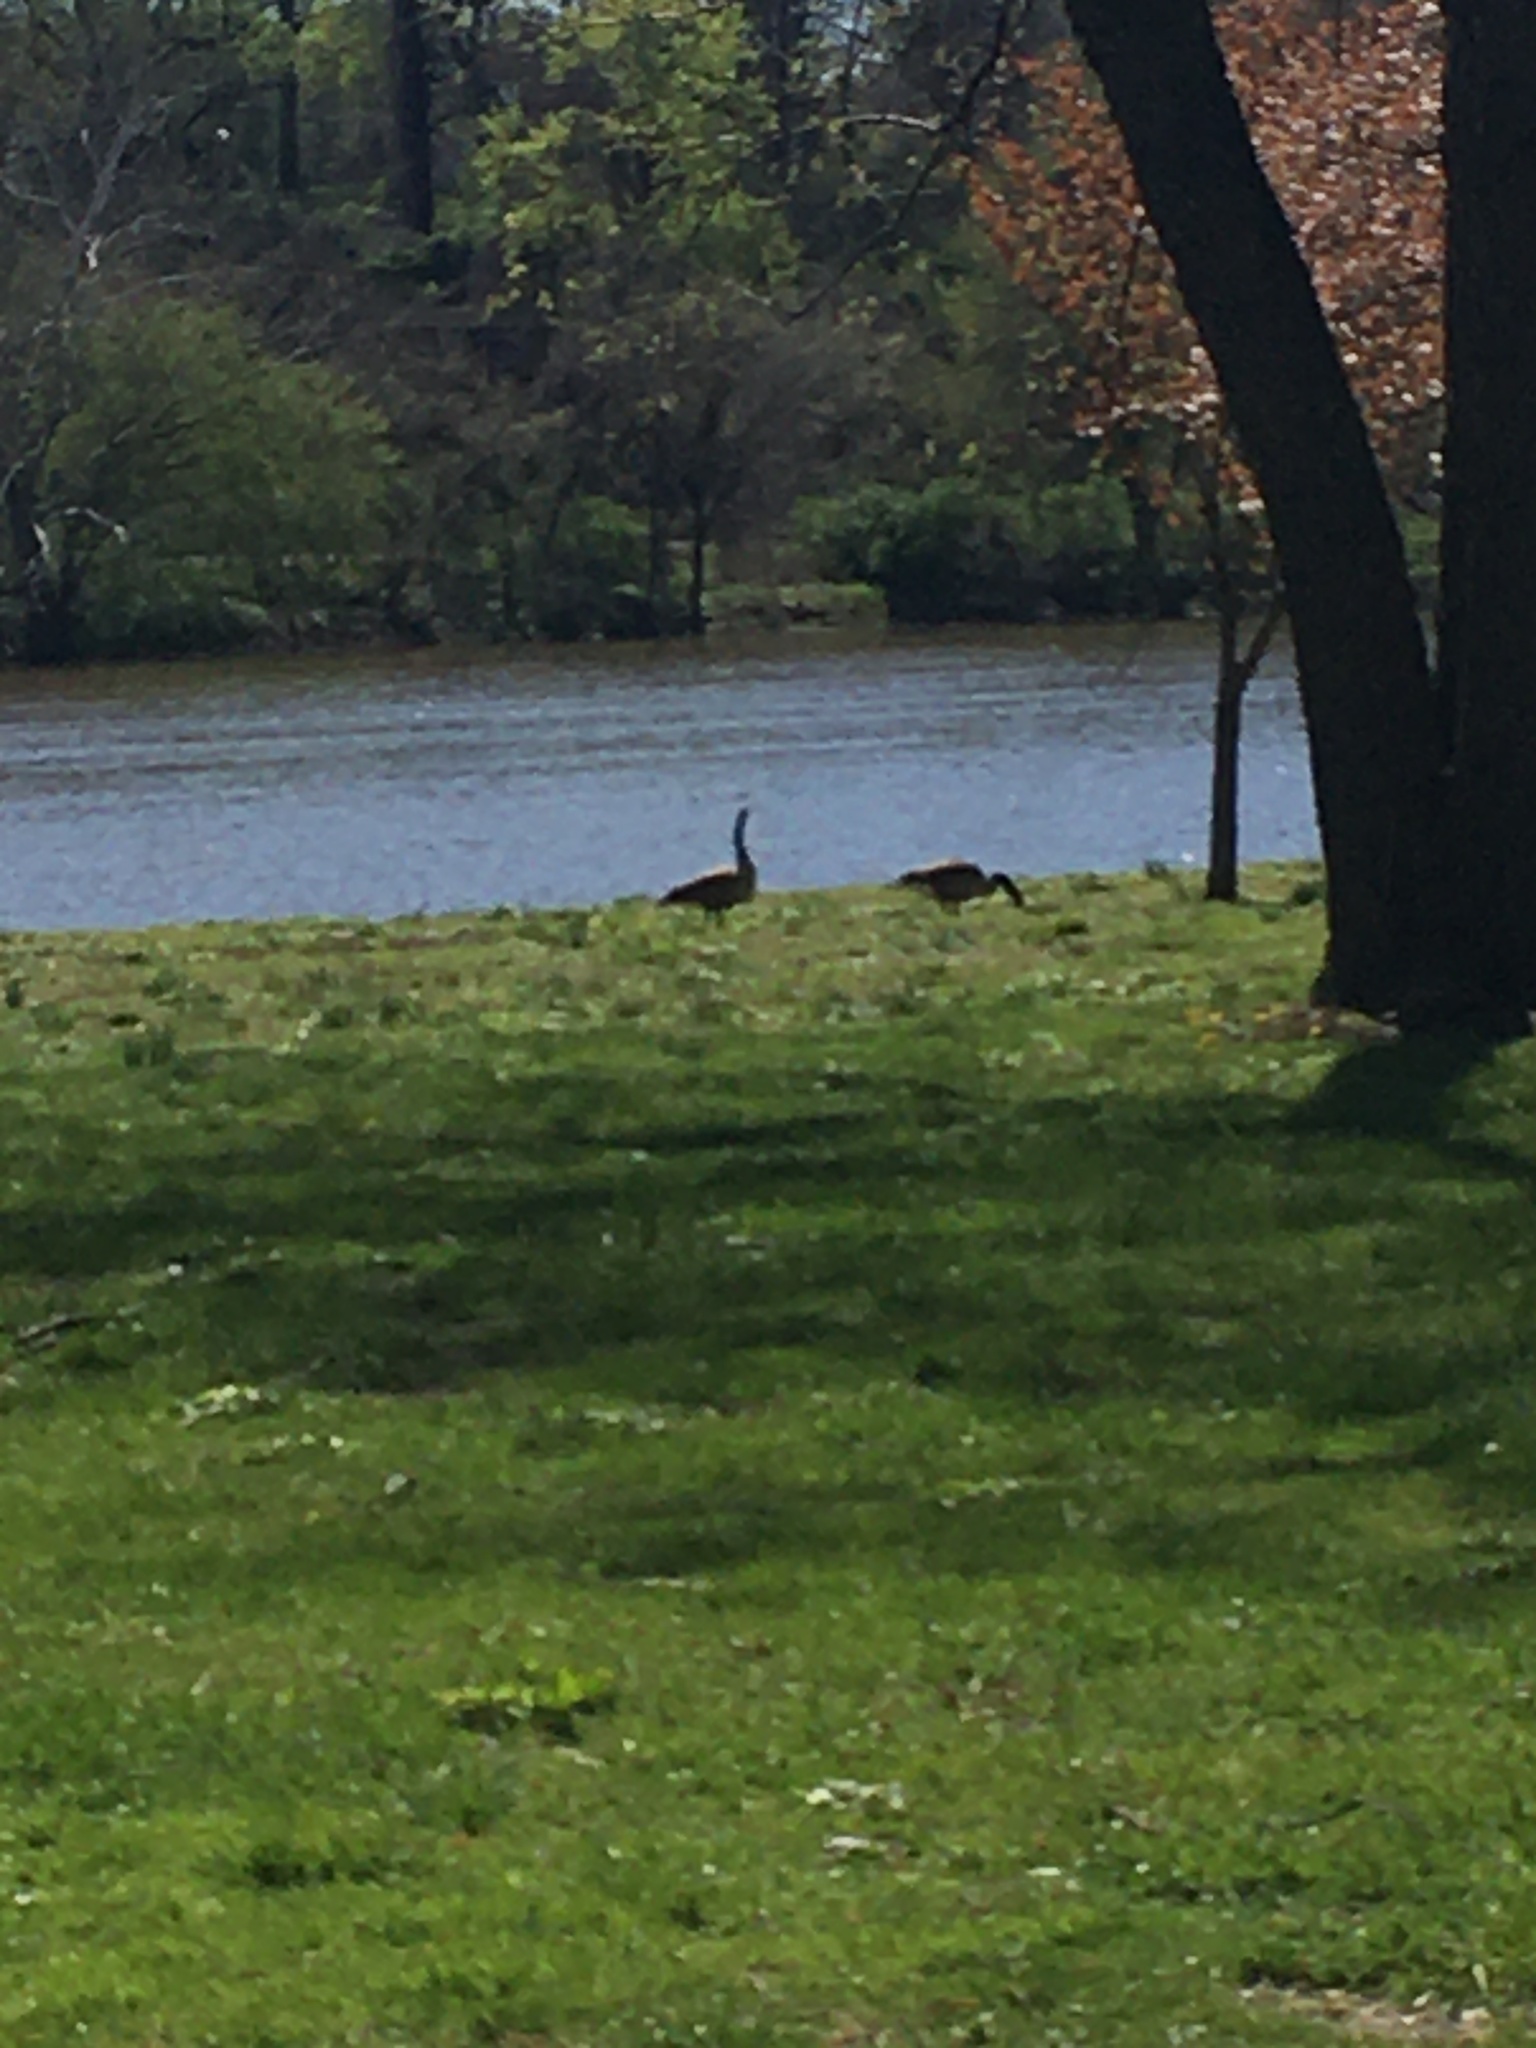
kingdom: Animalia
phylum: Chordata
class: Aves
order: Anseriformes
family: Anatidae
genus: Branta
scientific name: Branta canadensis
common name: Canada goose
